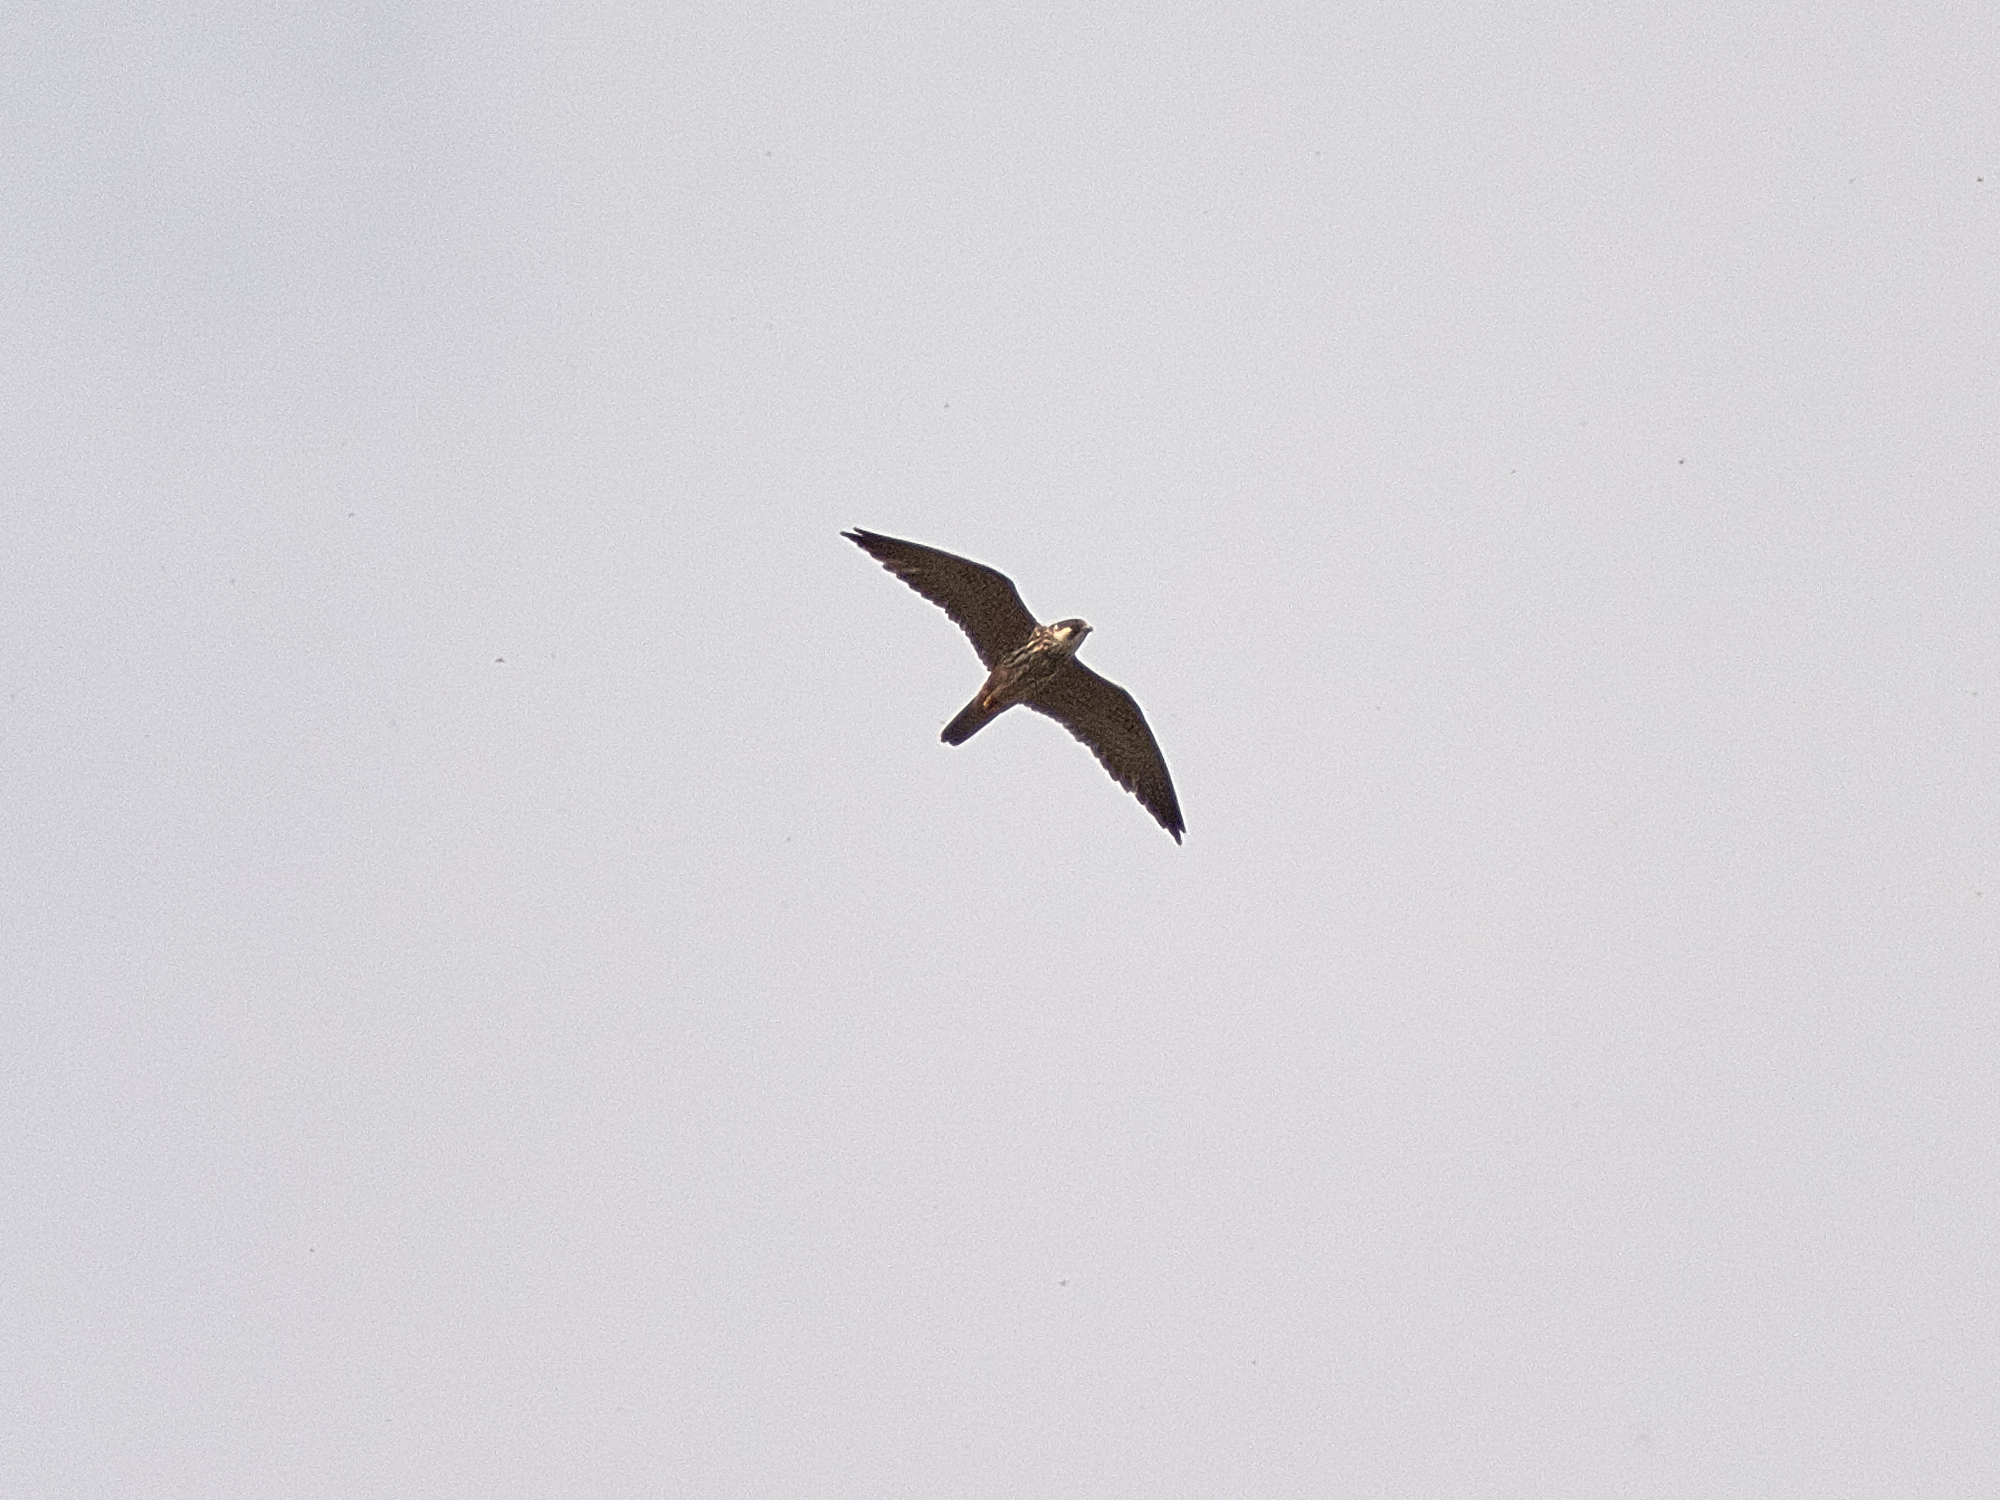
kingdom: Animalia
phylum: Chordata
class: Aves
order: Falconiformes
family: Falconidae
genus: Falco
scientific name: Falco subbuteo
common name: Eurasian hobby
